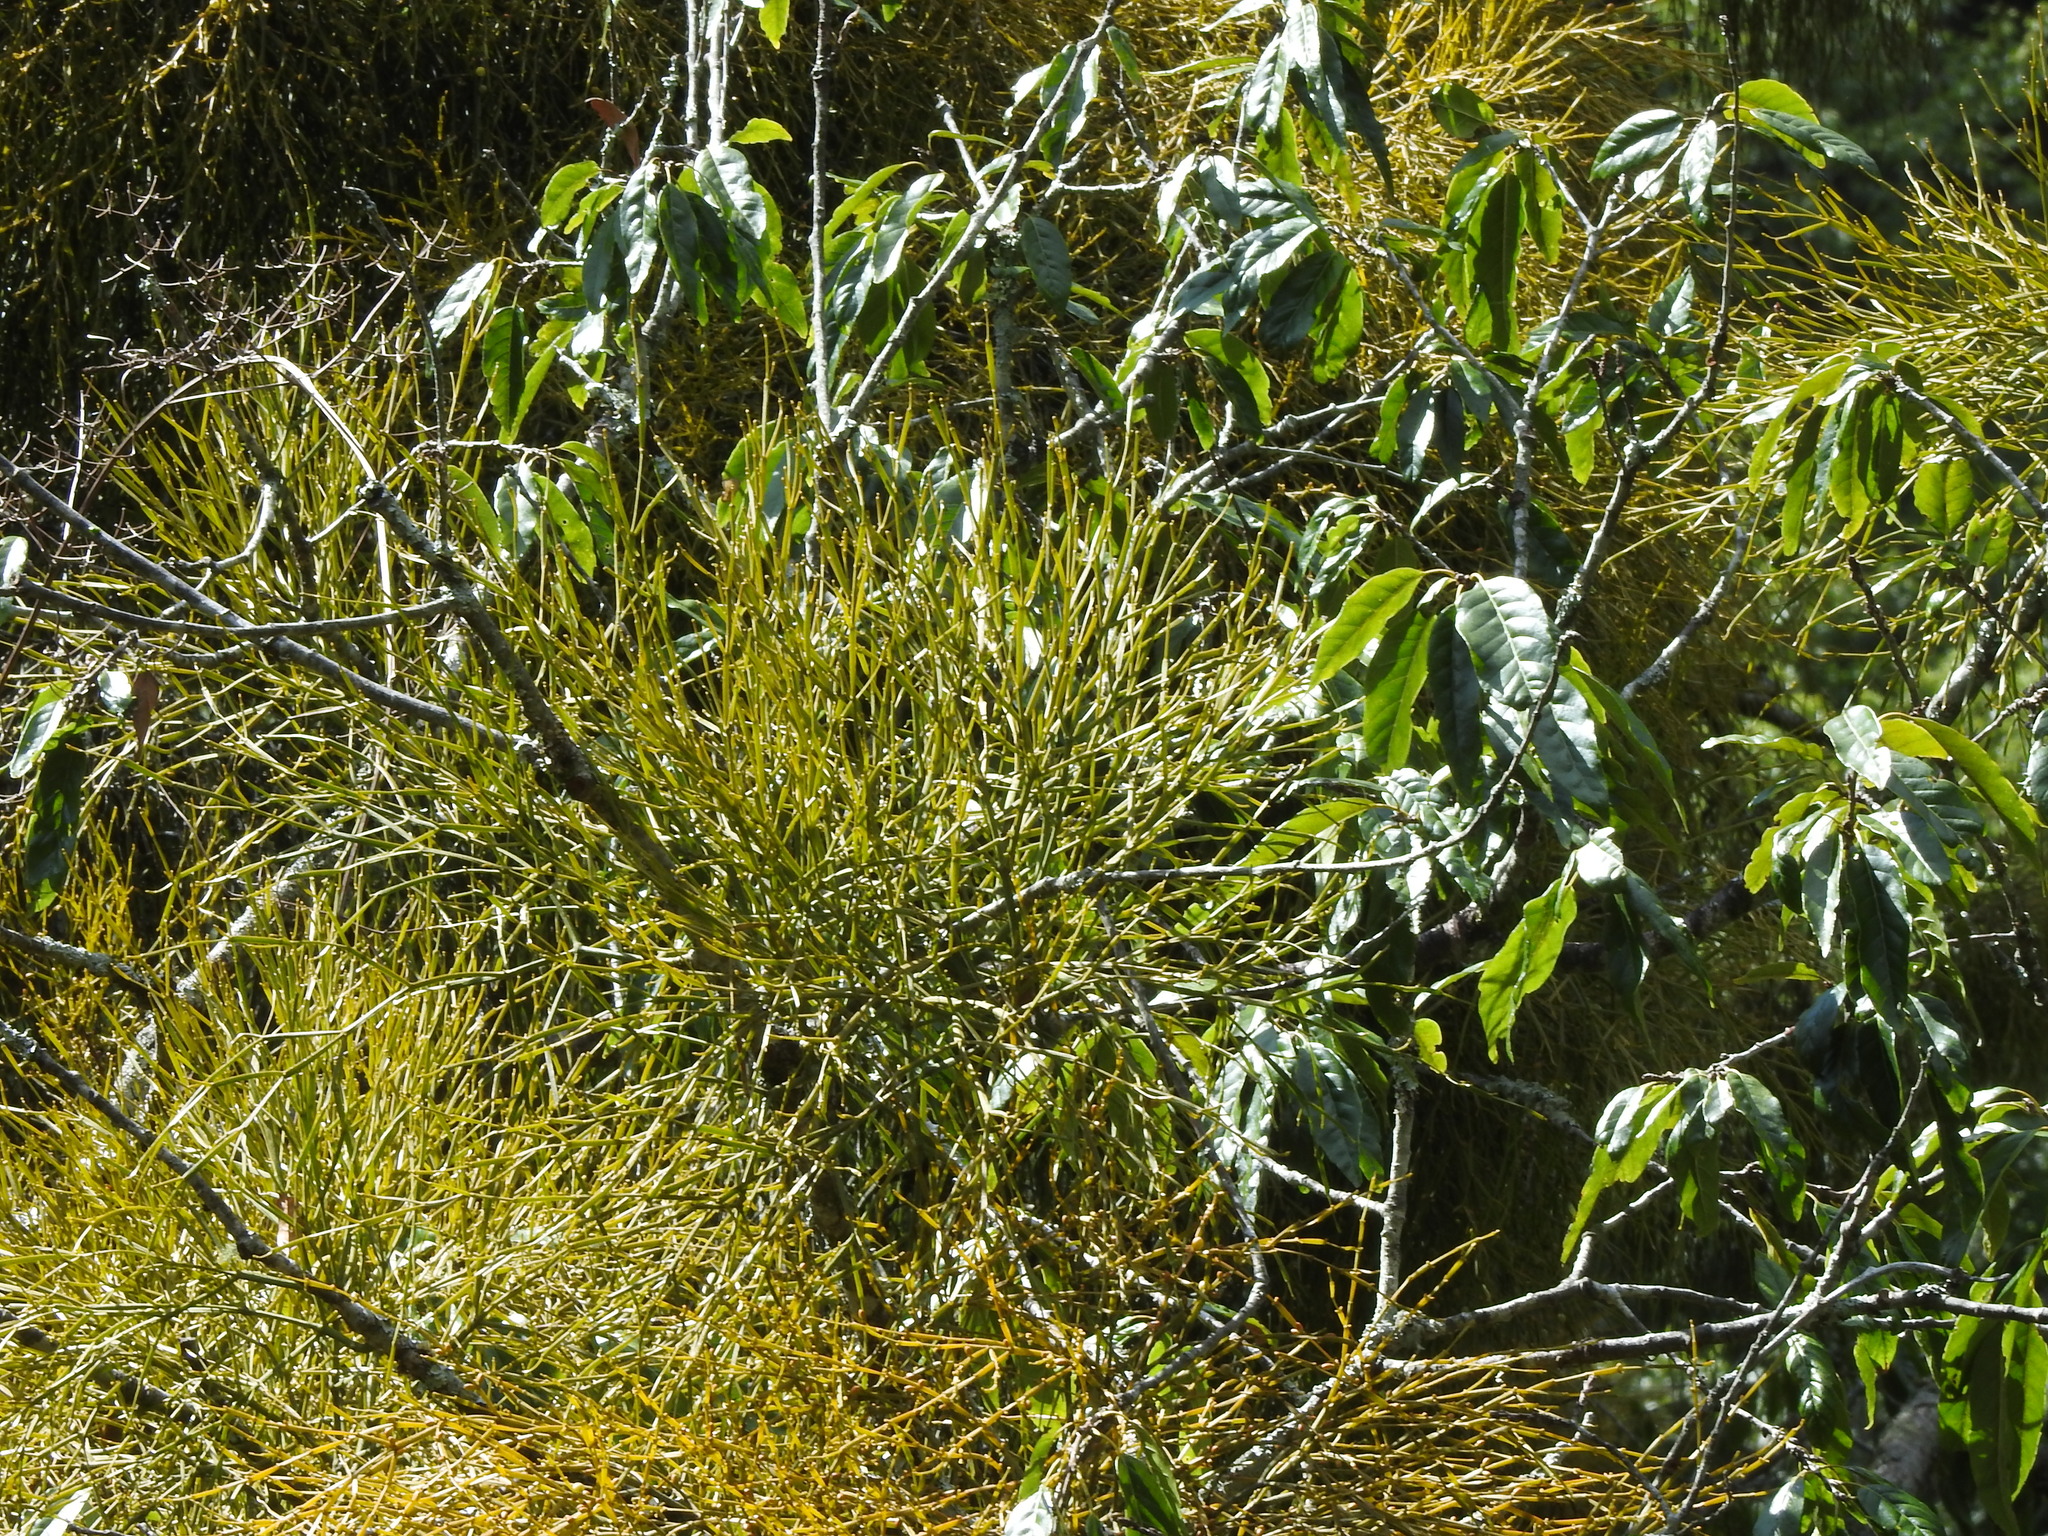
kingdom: Plantae
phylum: Tracheophyta
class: Magnoliopsida
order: Santalales
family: Viscaceae
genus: Viscum
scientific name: Viscum liquidambaricola
